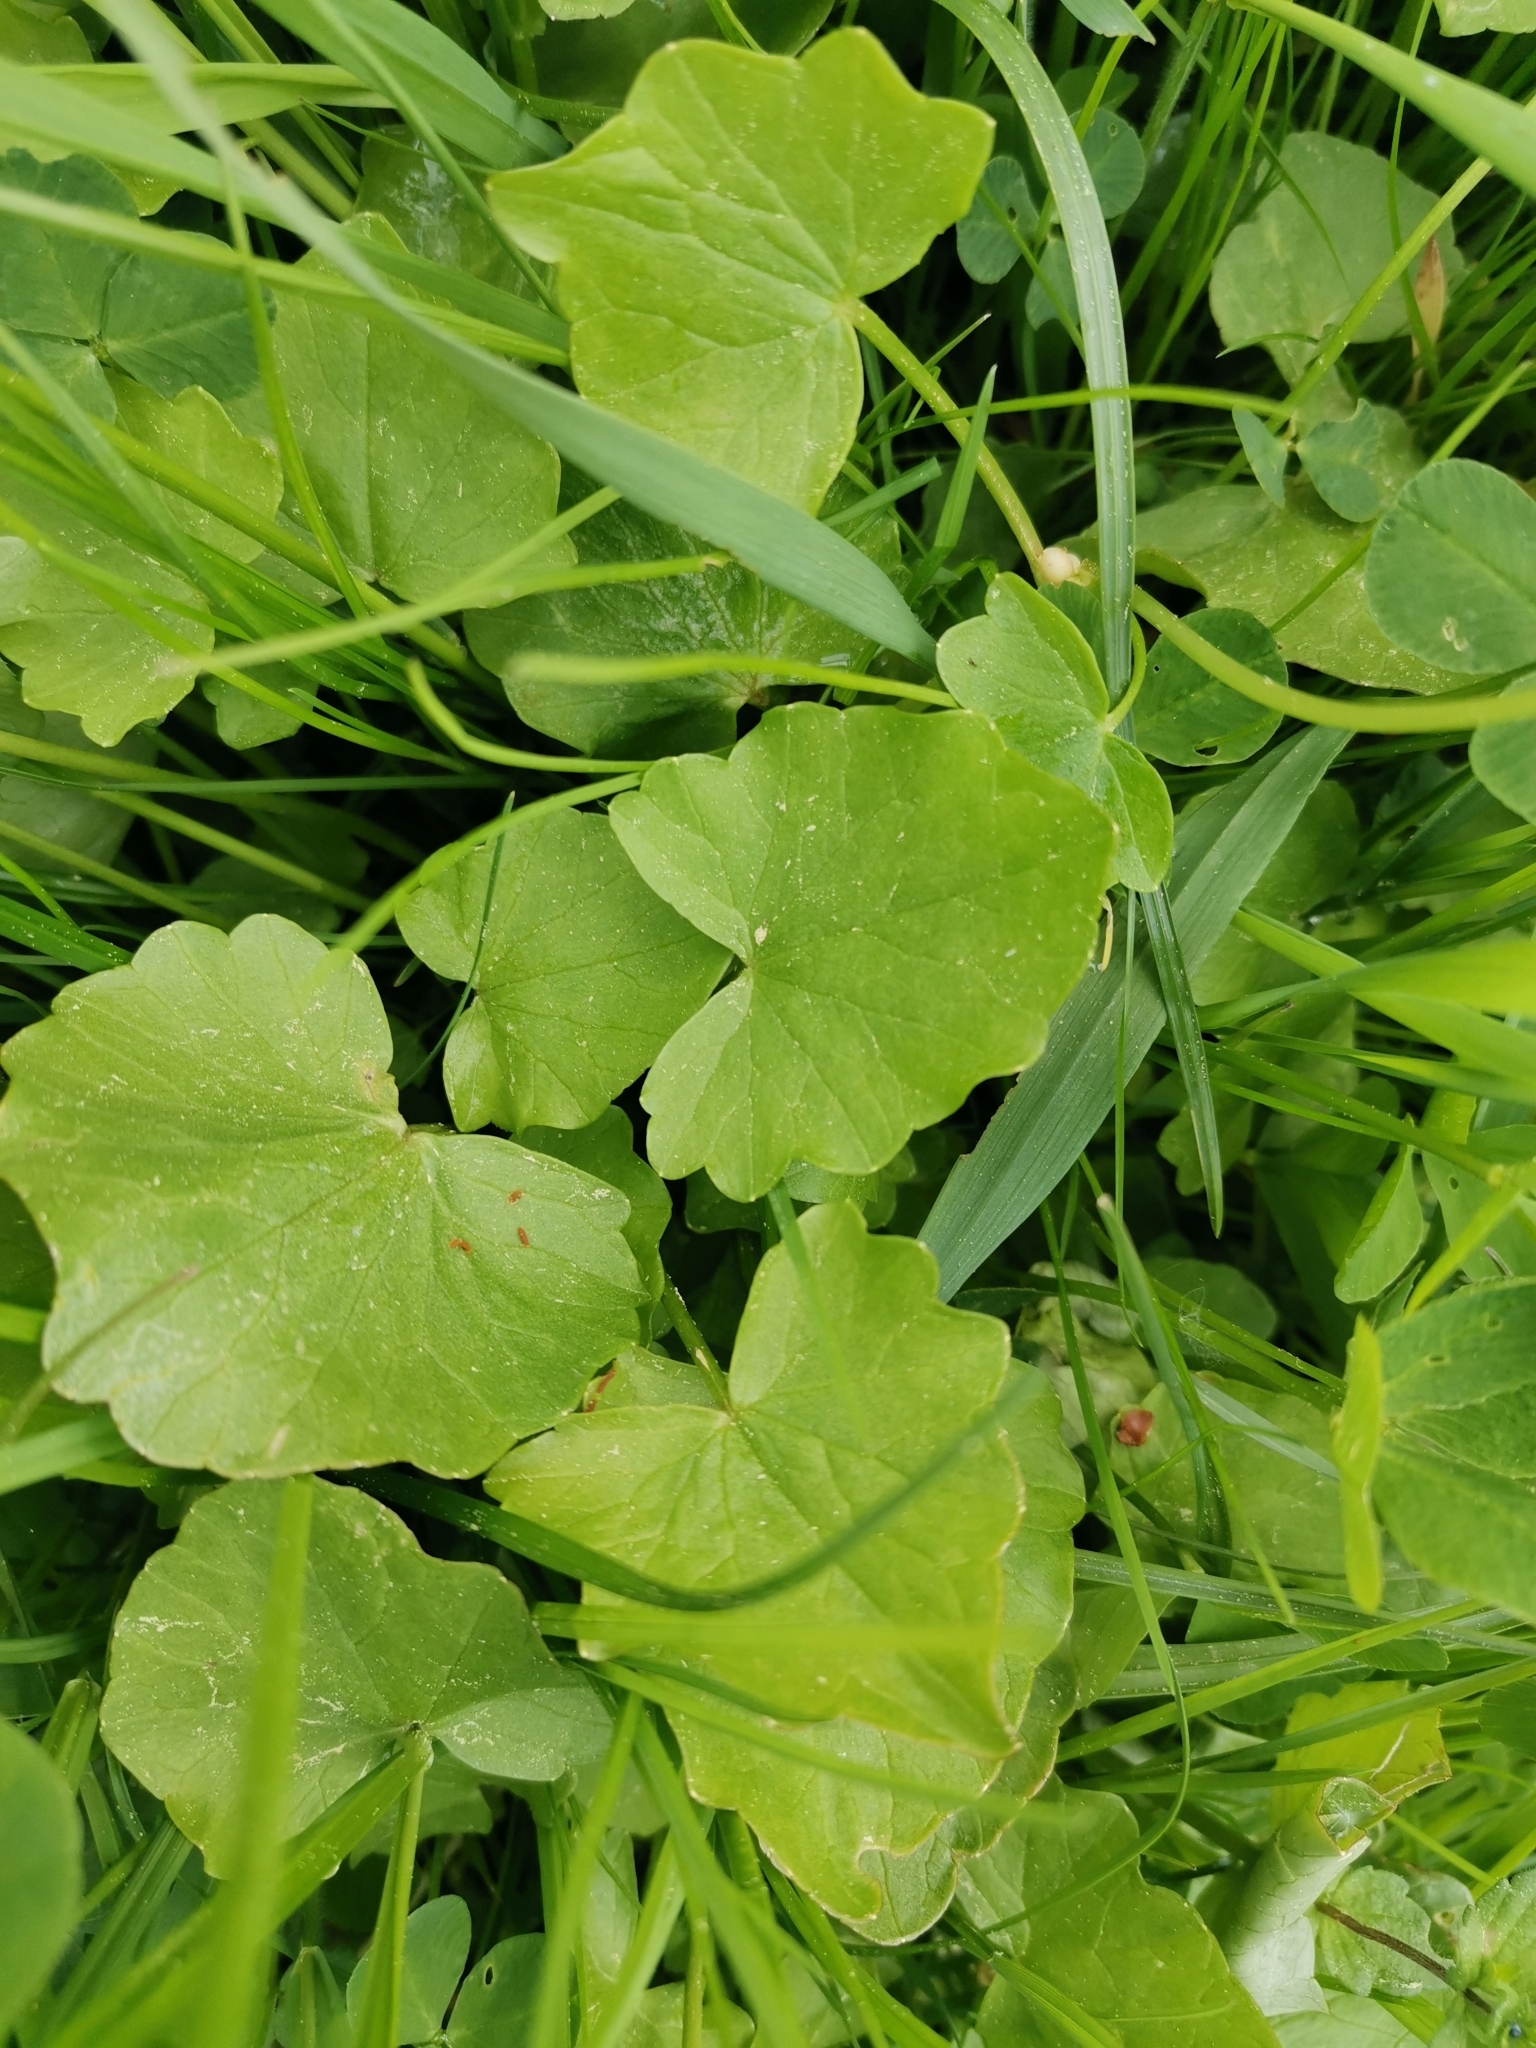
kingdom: Plantae
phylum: Tracheophyta
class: Magnoliopsida
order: Ranunculales
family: Ranunculaceae
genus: Ficaria
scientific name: Ficaria verna
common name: Lesser celandine
